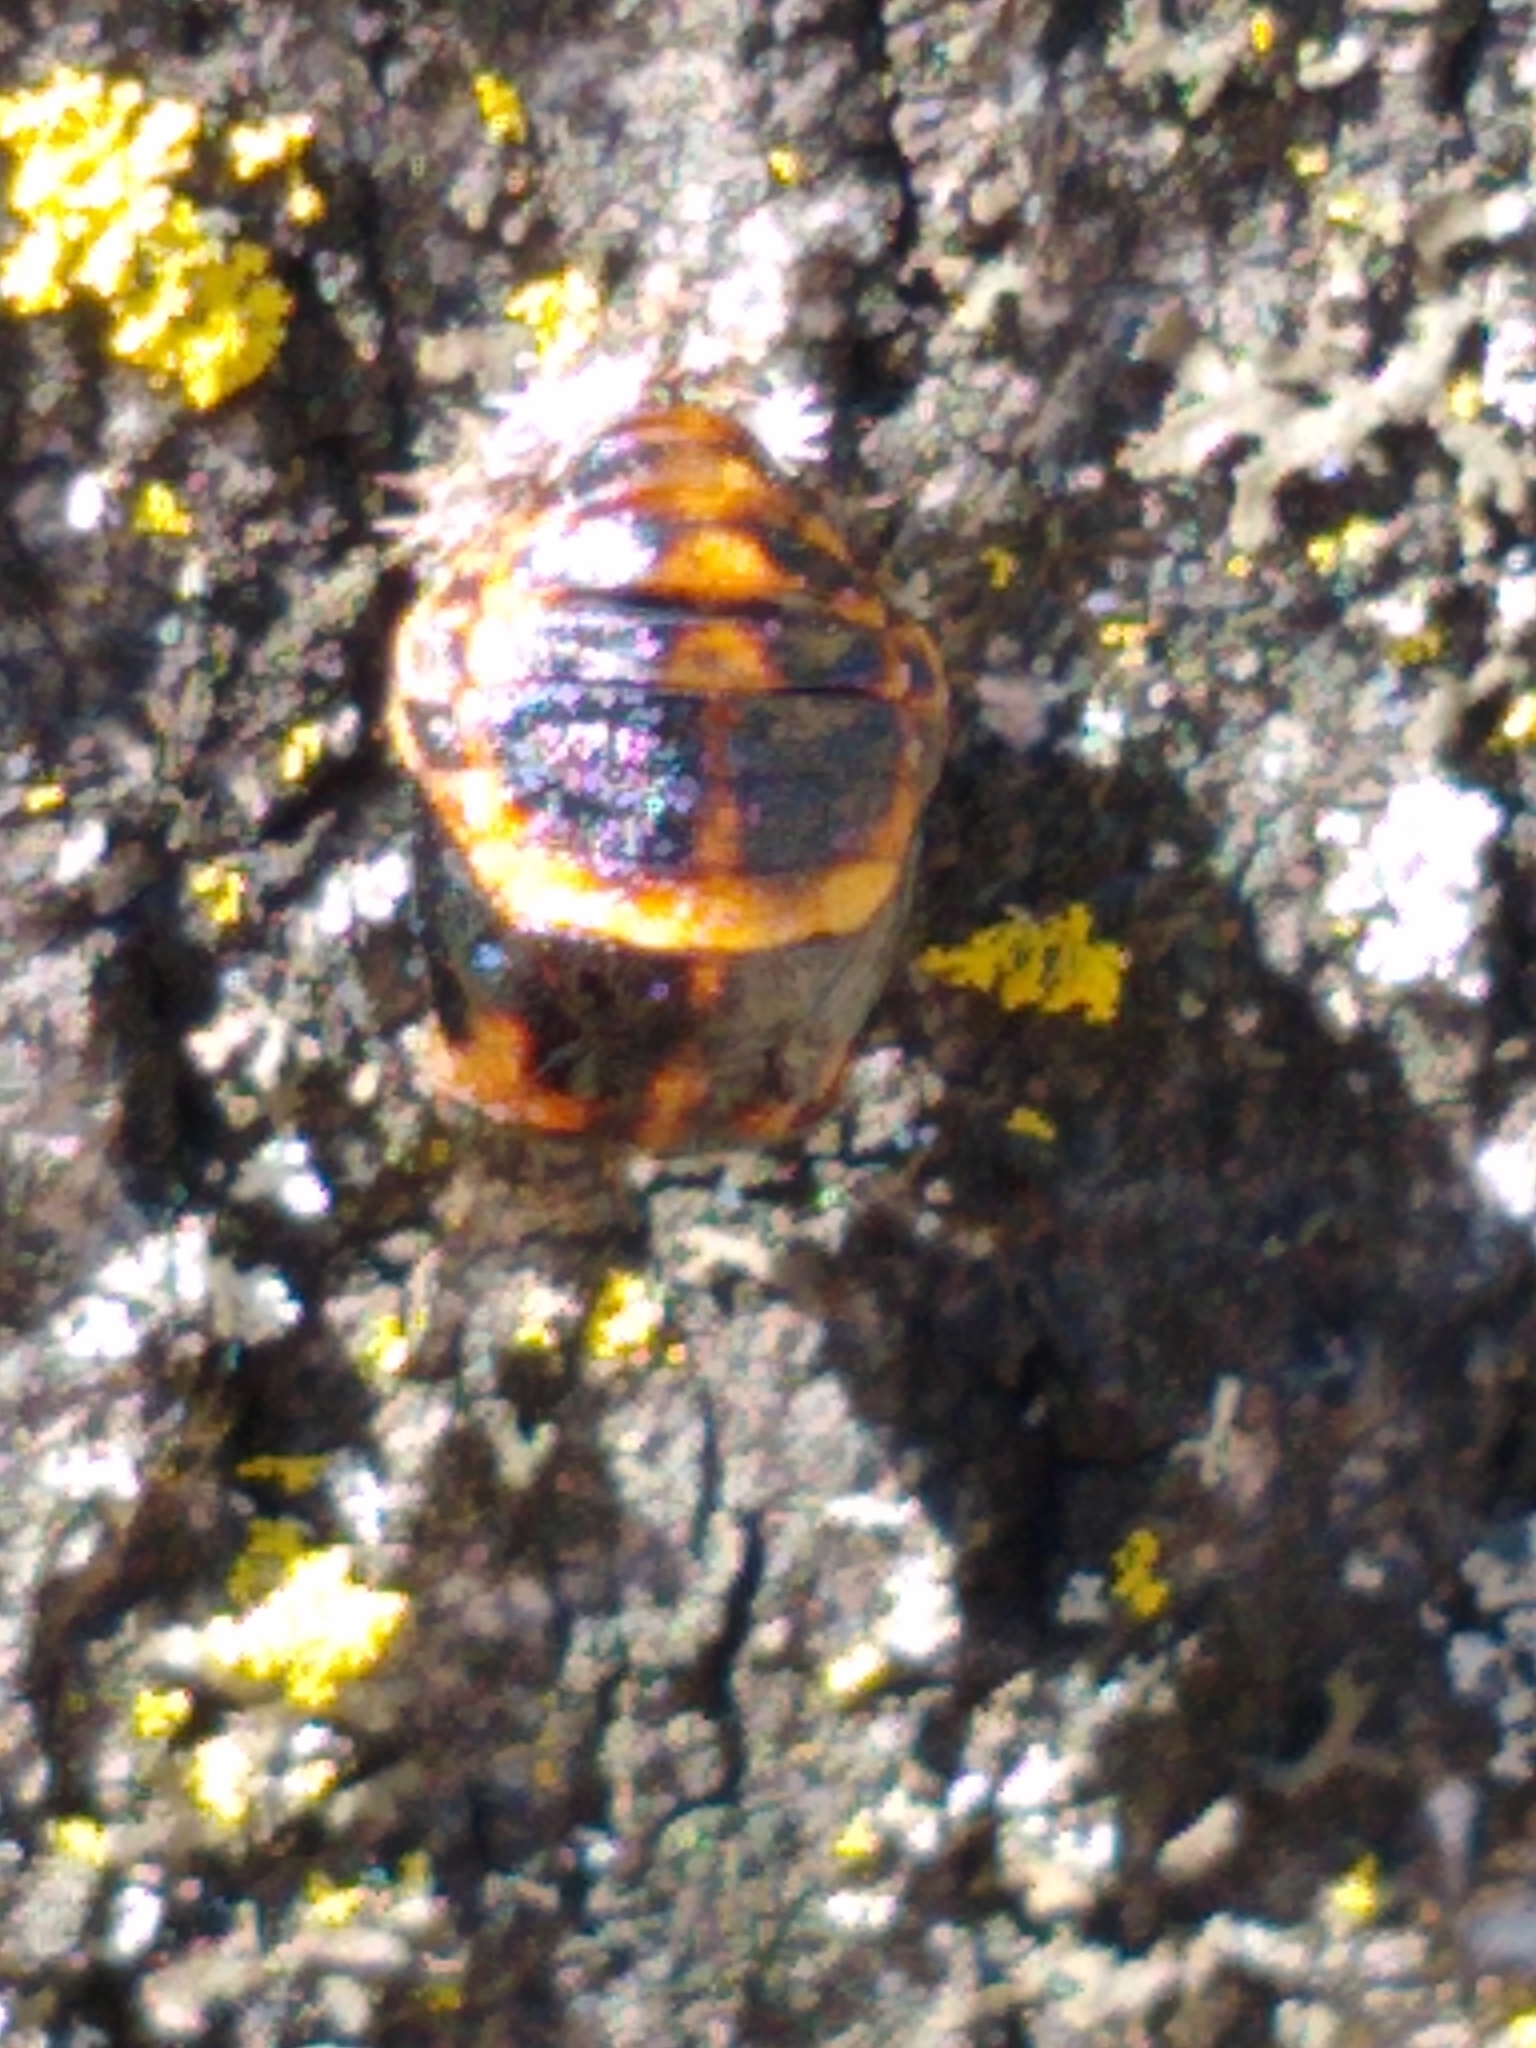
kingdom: Animalia
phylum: Arthropoda
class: Insecta
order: Coleoptera
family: Coccinellidae
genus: Harmonia
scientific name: Harmonia axyridis
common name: Harlequin ladybird
